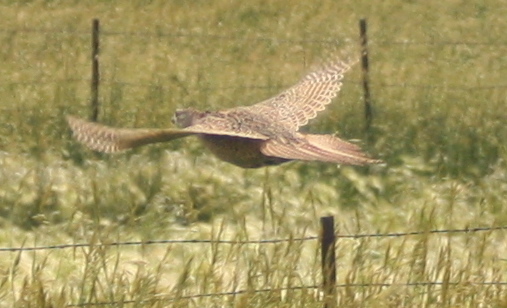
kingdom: Animalia
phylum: Chordata
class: Aves
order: Galliformes
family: Phasianidae
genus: Phasianus
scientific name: Phasianus colchicus
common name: Common pheasant
